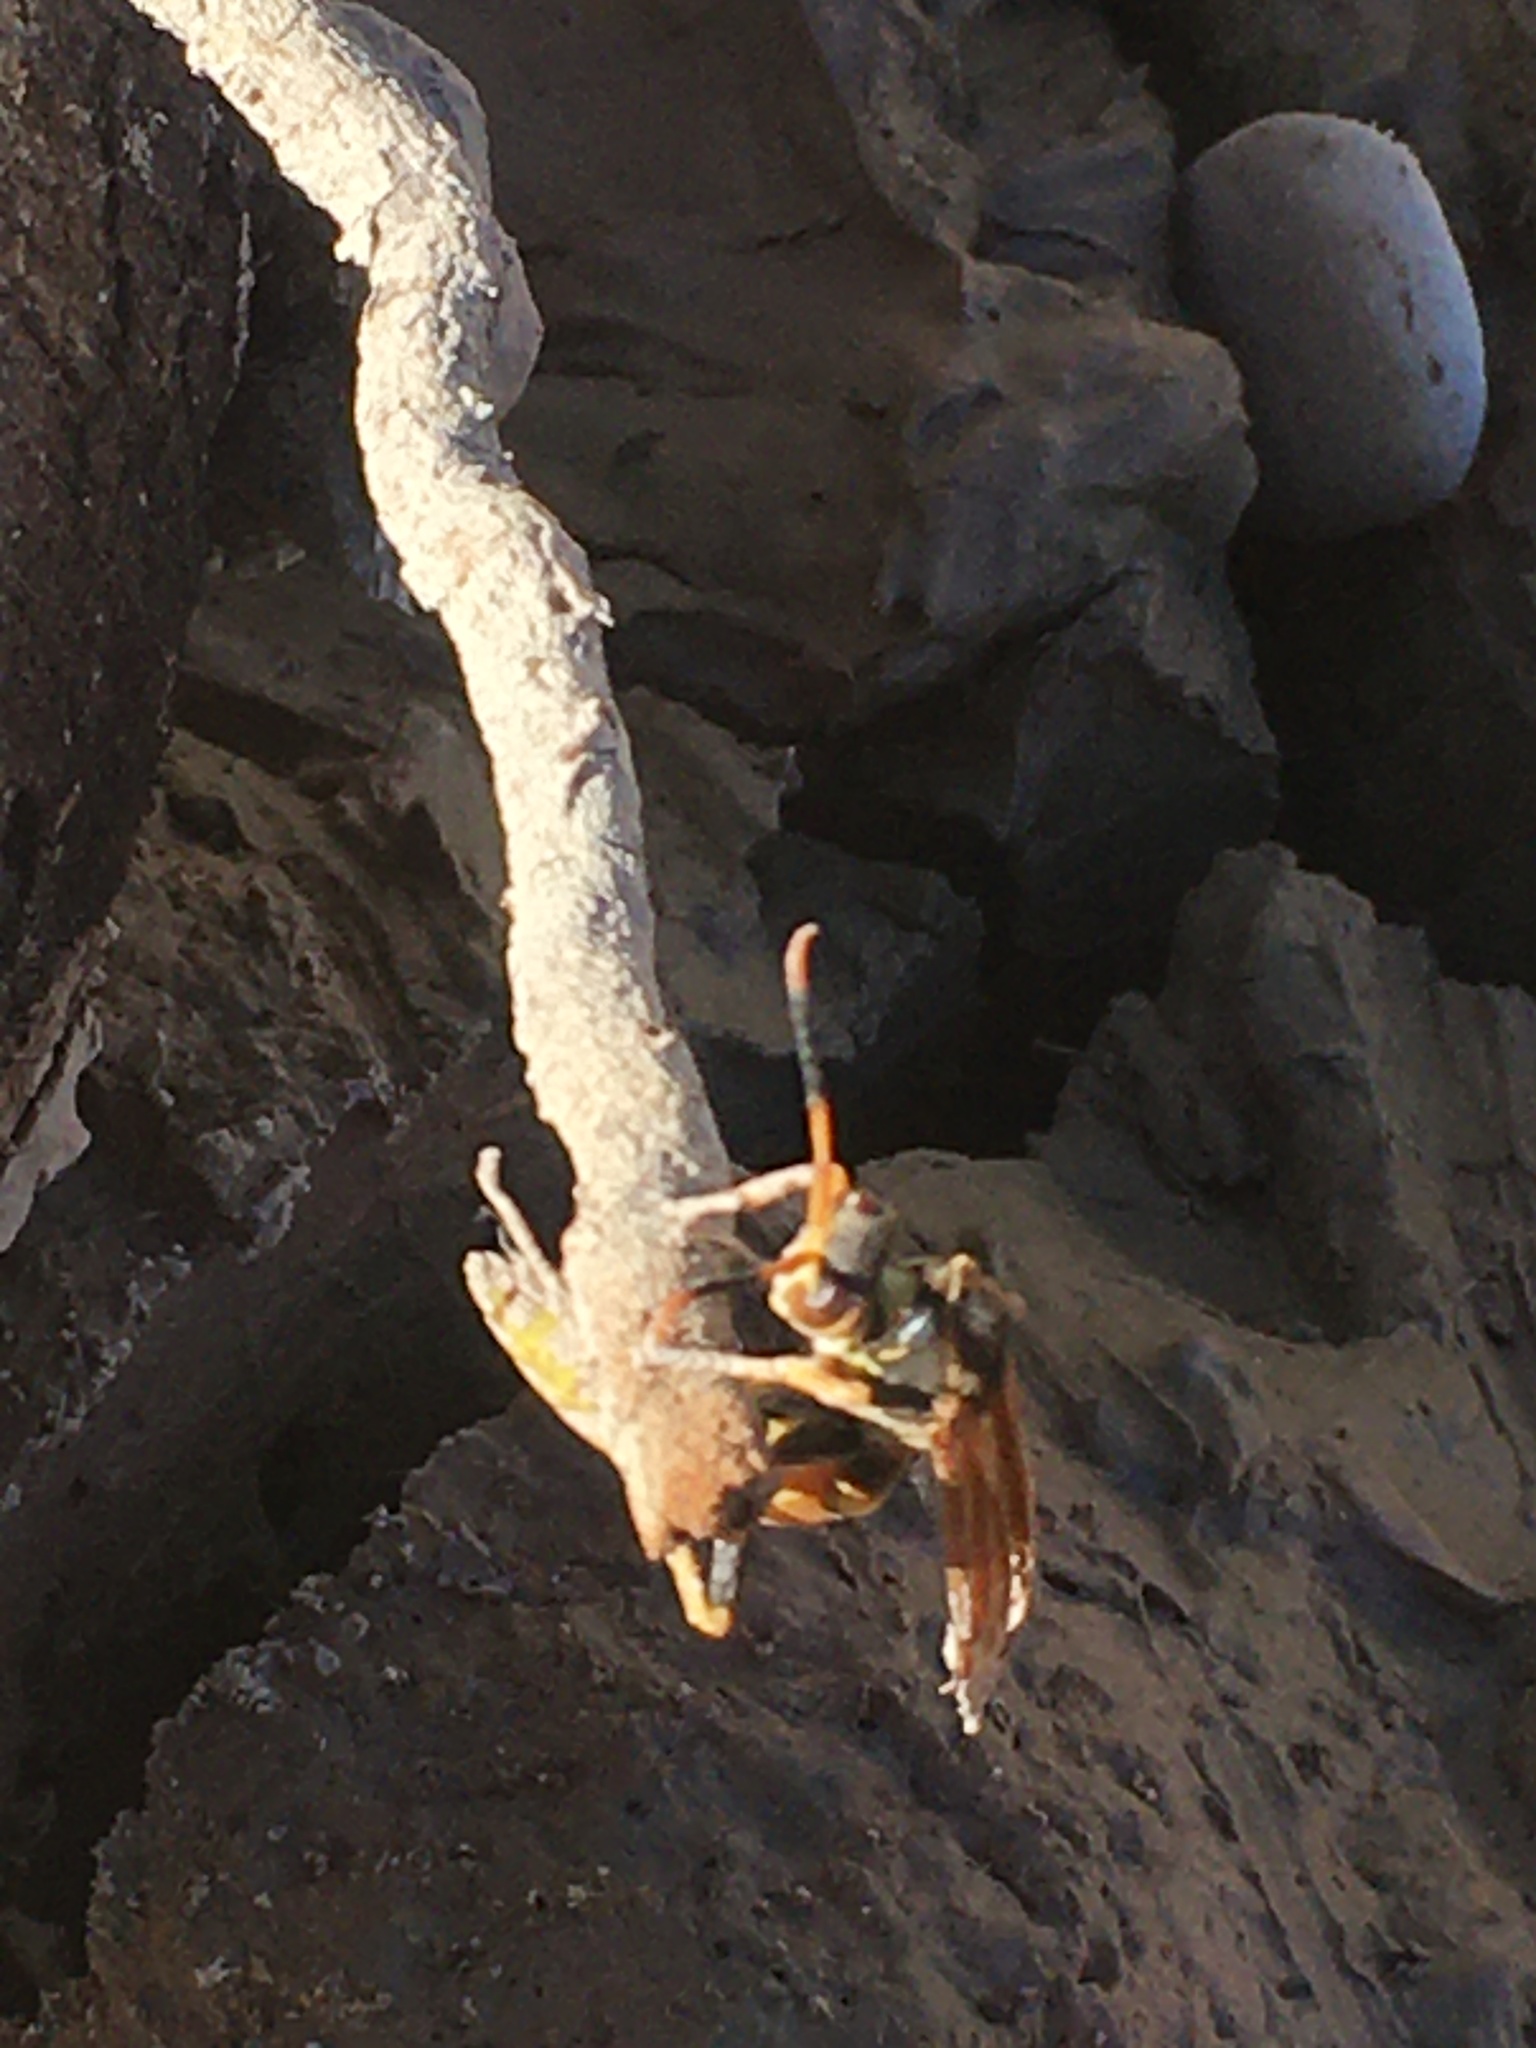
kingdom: Animalia
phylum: Arthropoda
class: Insecta
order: Hymenoptera
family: Eumenidae
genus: Polistes
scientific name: Polistes comanchus
